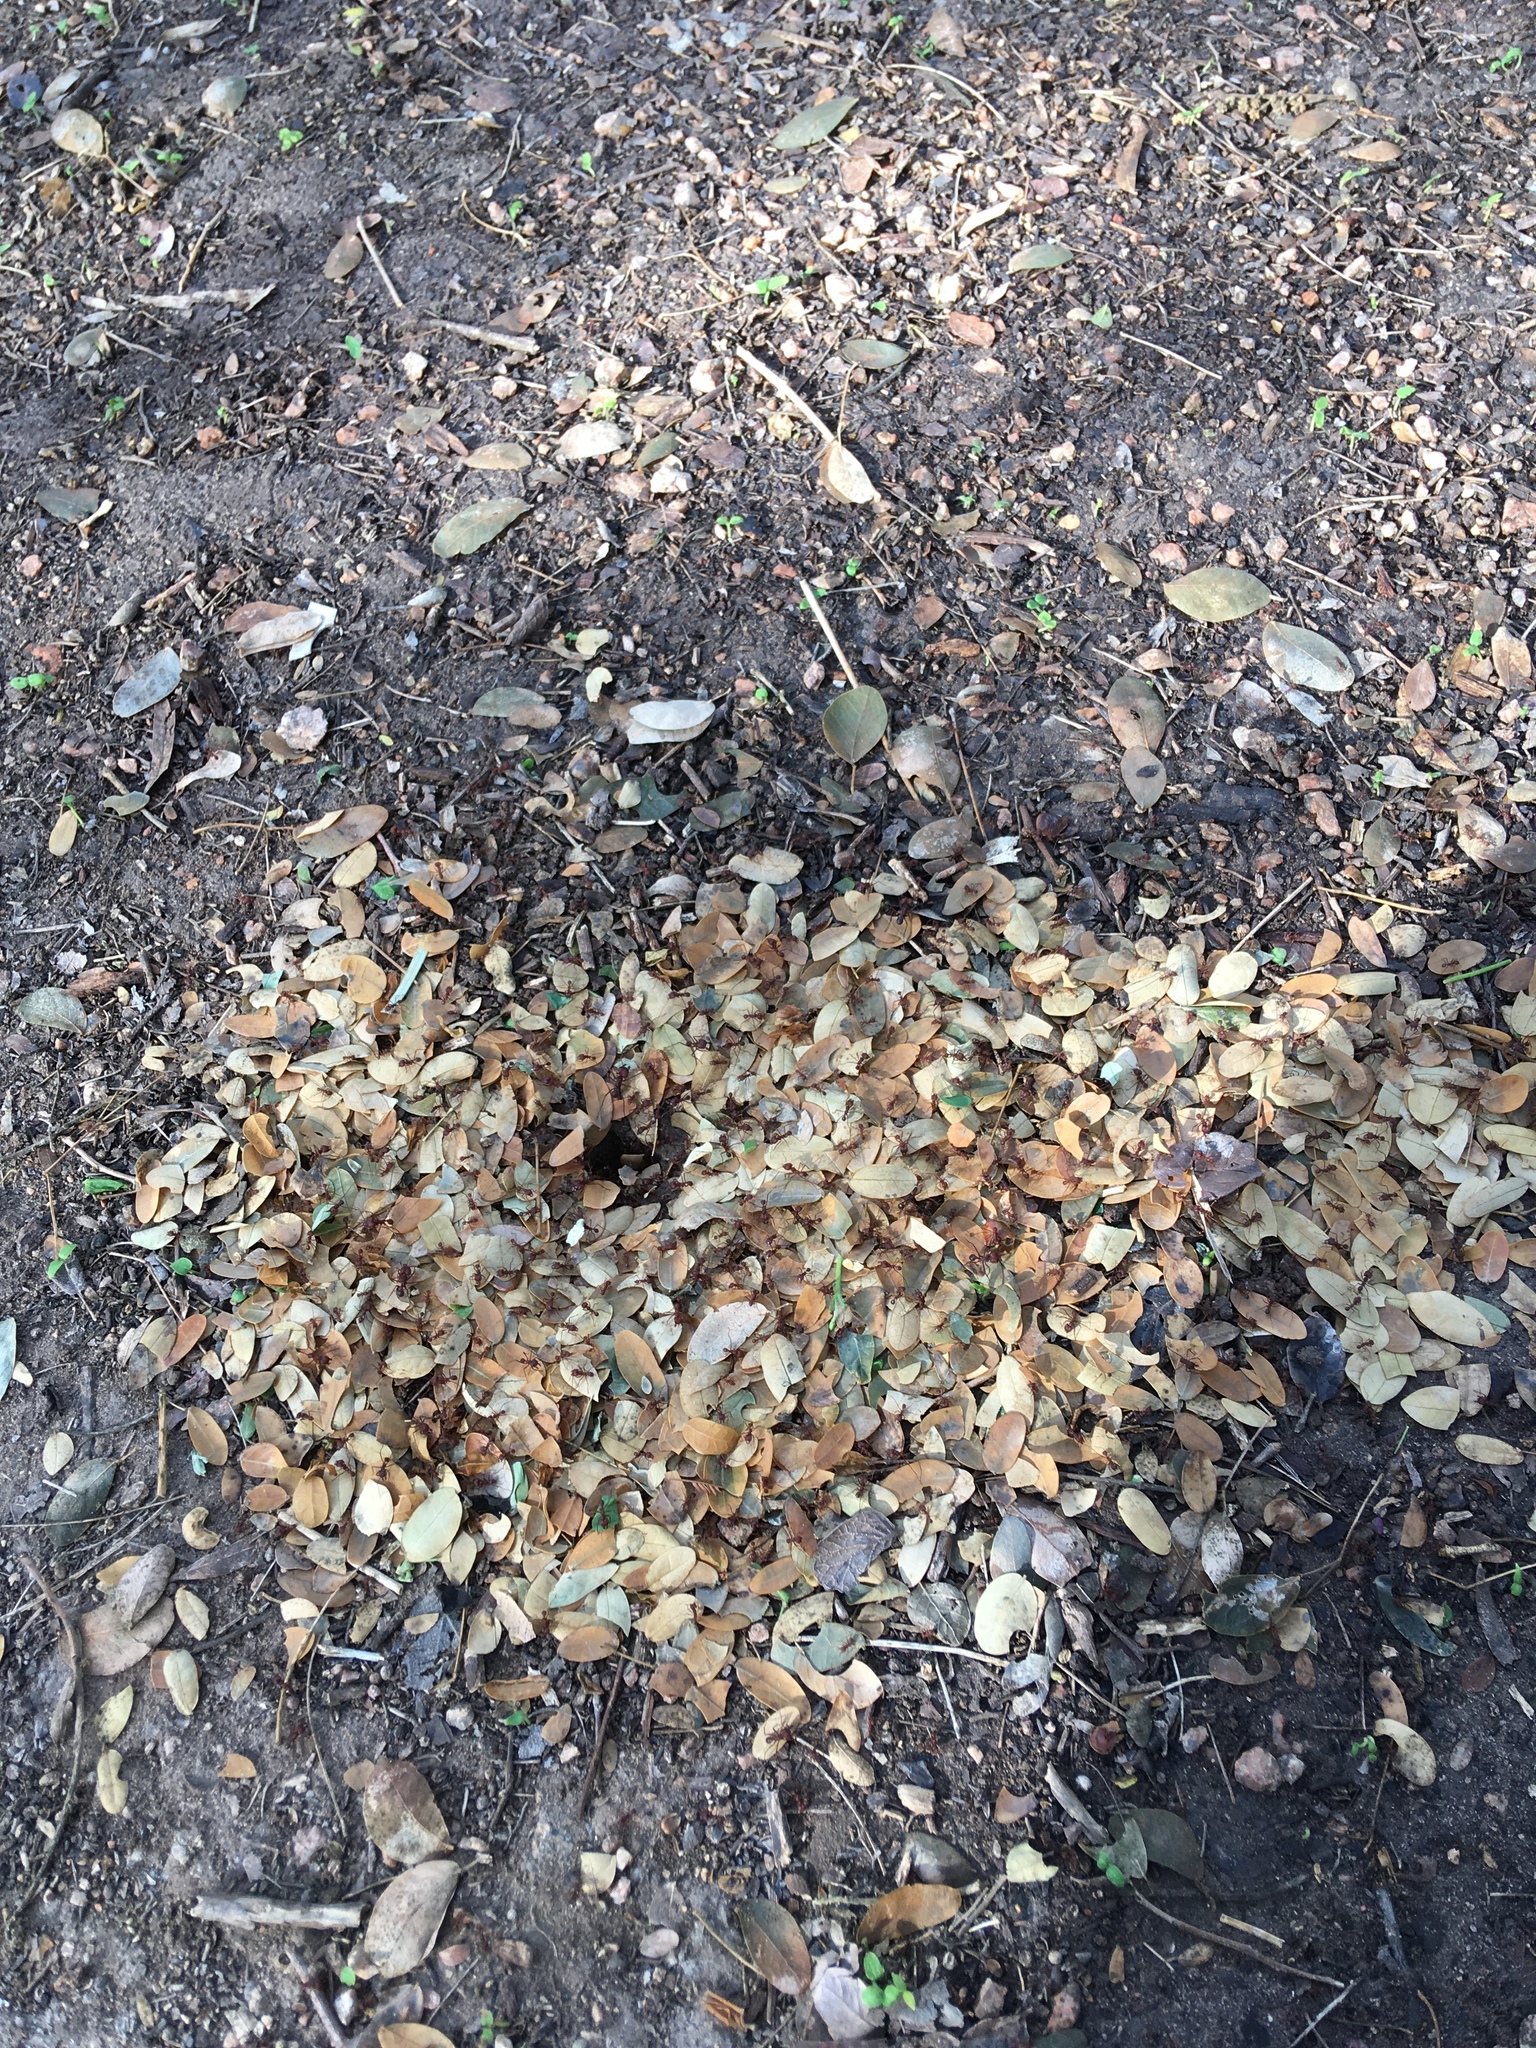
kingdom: Animalia
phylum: Arthropoda
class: Insecta
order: Hymenoptera
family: Formicidae
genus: Atta
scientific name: Atta texana
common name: Texas leafcutting ant
